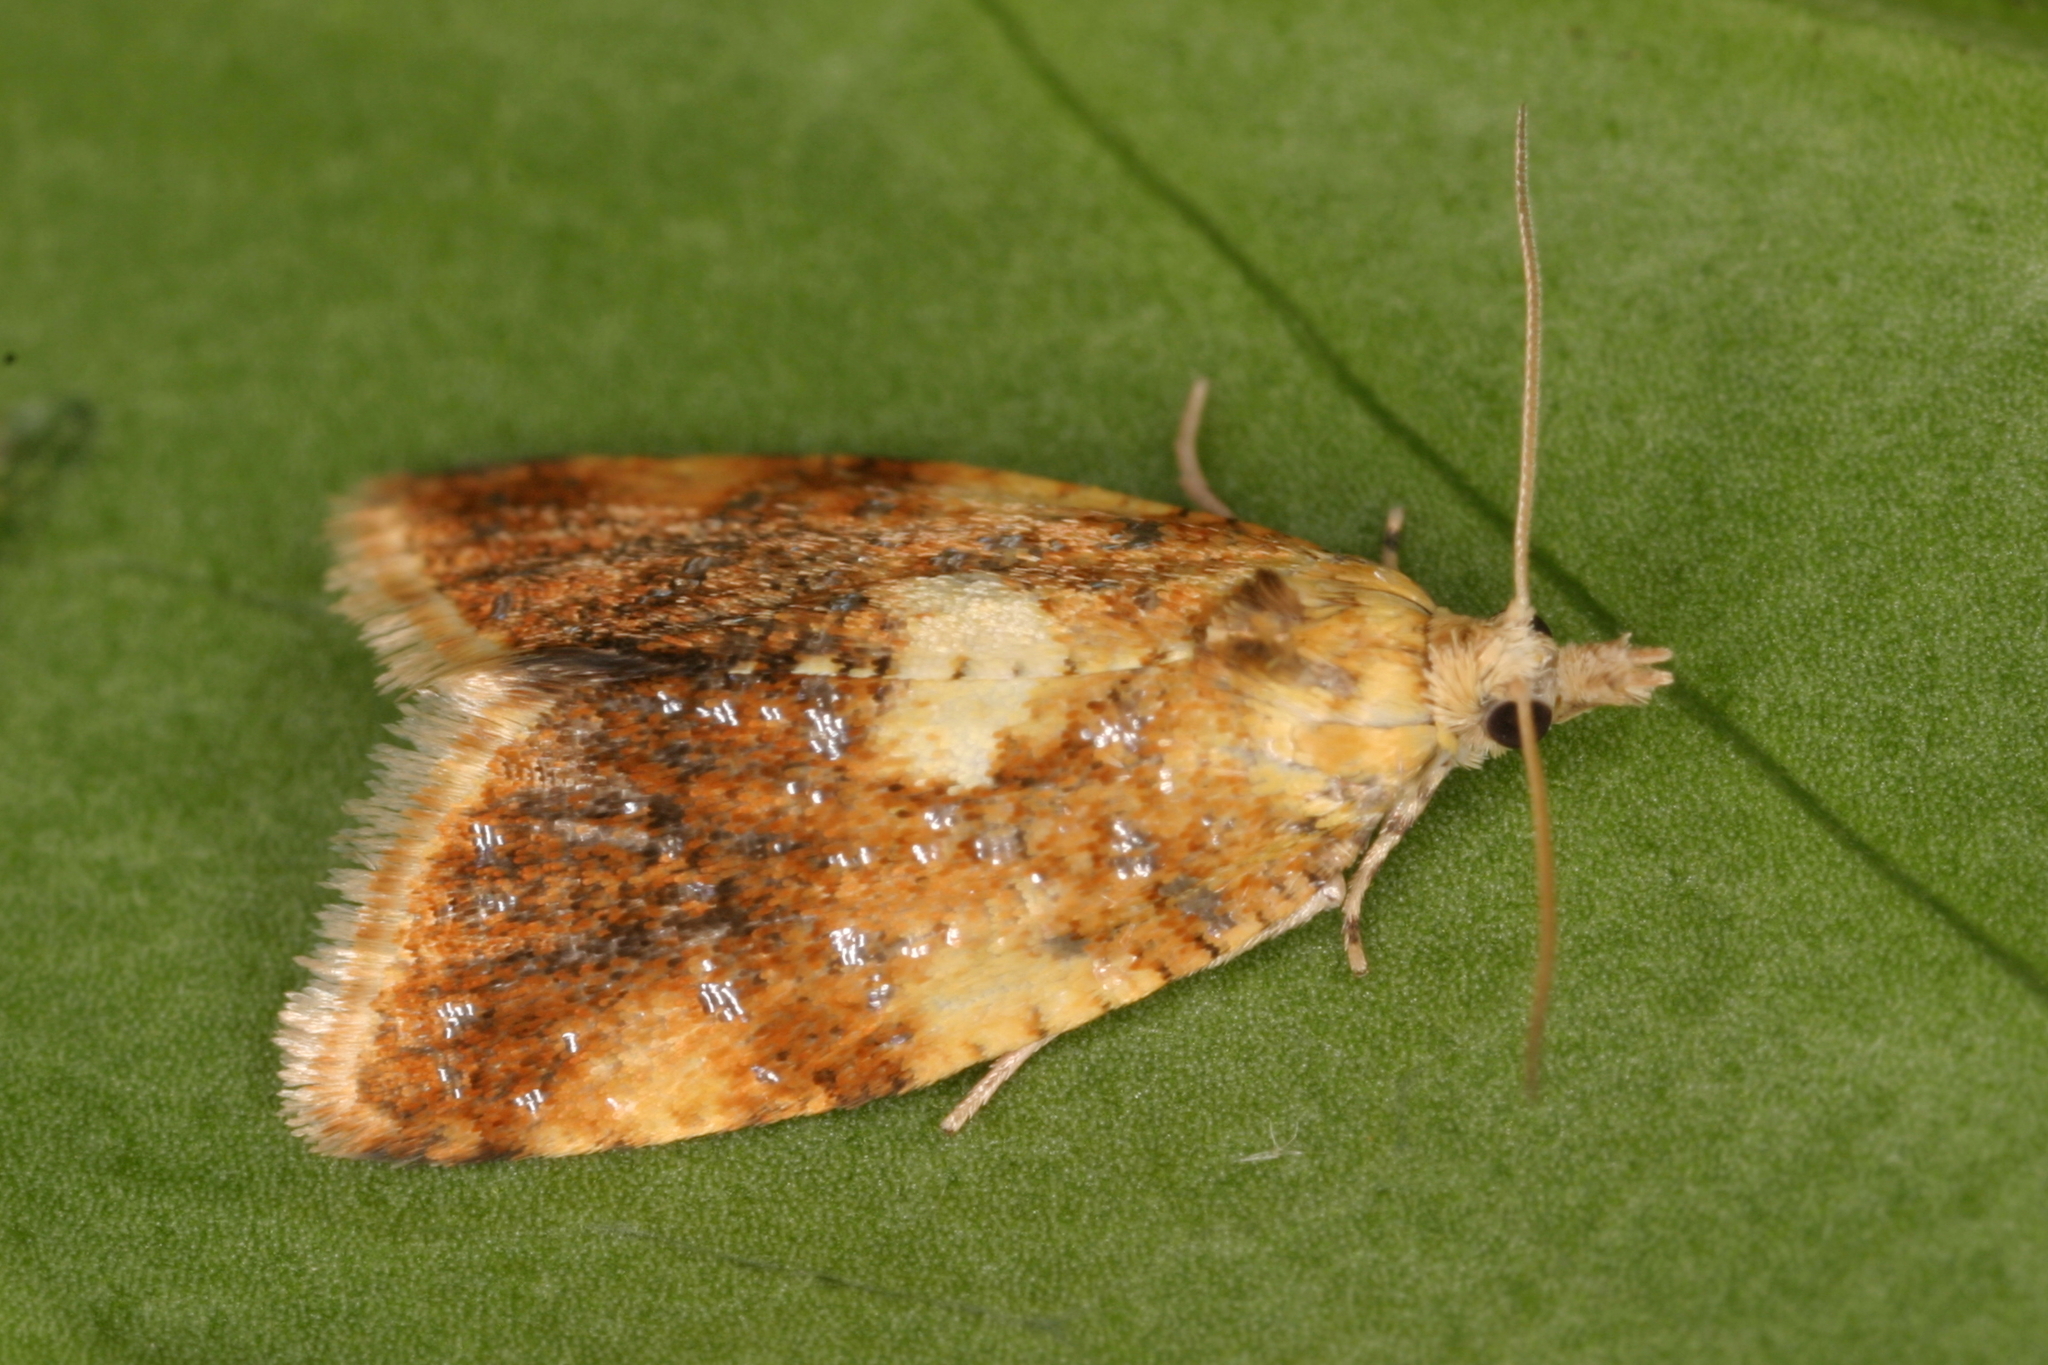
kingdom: Animalia
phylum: Arthropoda
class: Insecta
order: Lepidoptera
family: Tortricidae
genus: Pseudargyrotoza
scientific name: Pseudargyrotoza conwagana
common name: Yellow-spot twist
